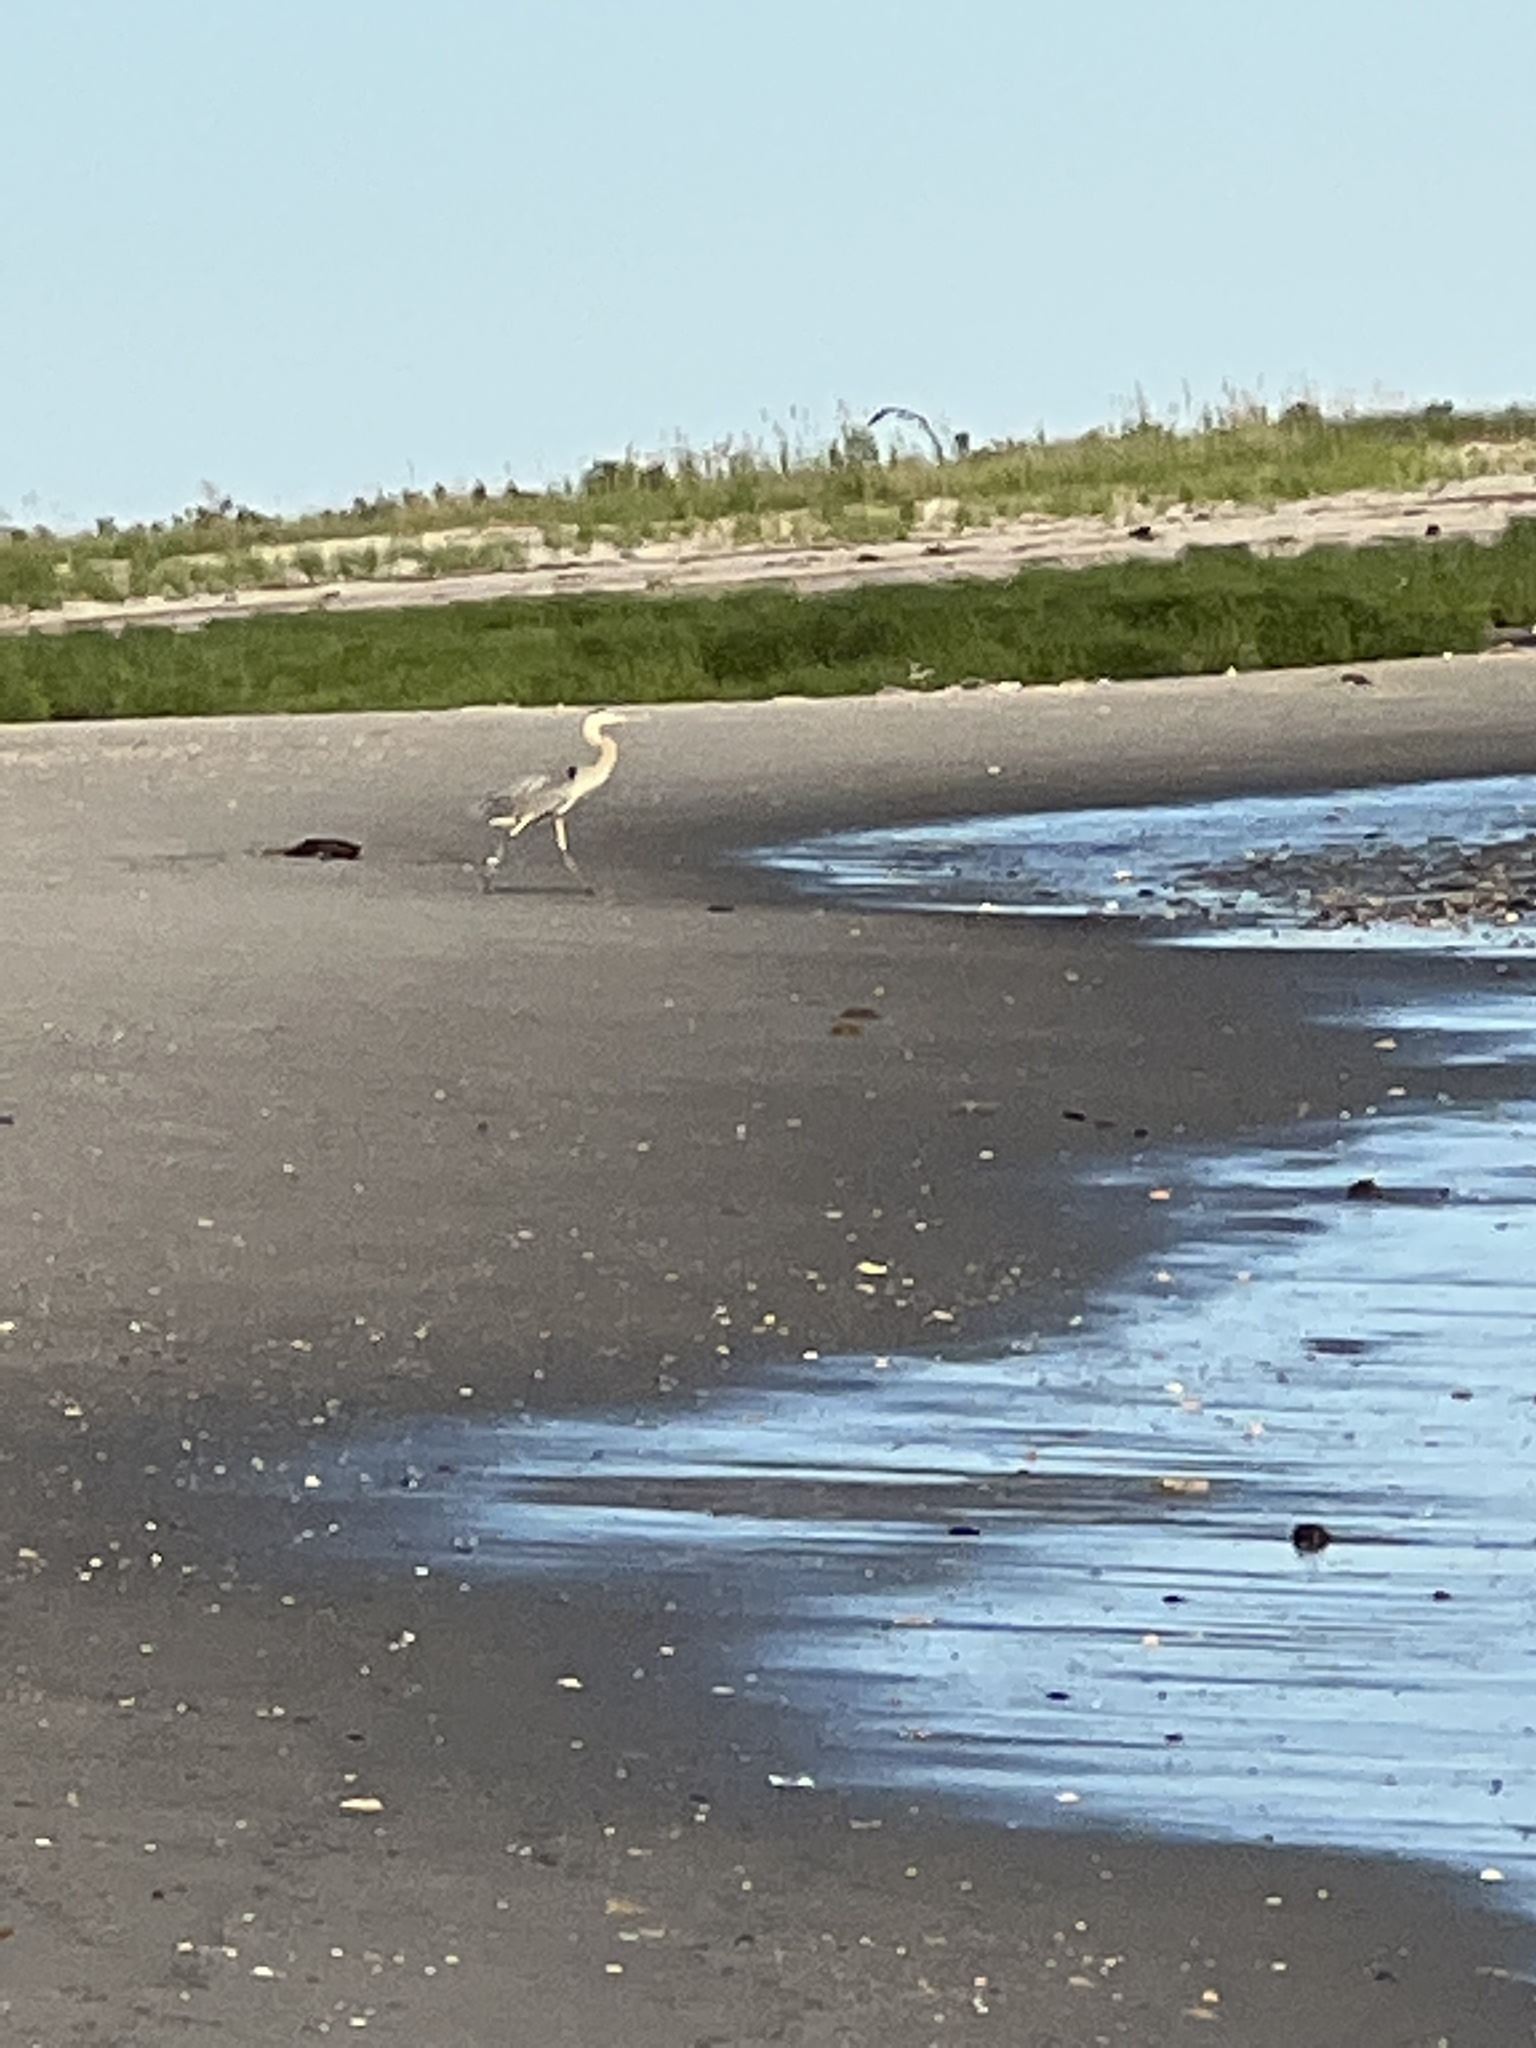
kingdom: Animalia
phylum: Chordata
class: Aves
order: Pelecaniformes
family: Ardeidae
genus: Ardea
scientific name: Ardea herodias
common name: Great blue heron
